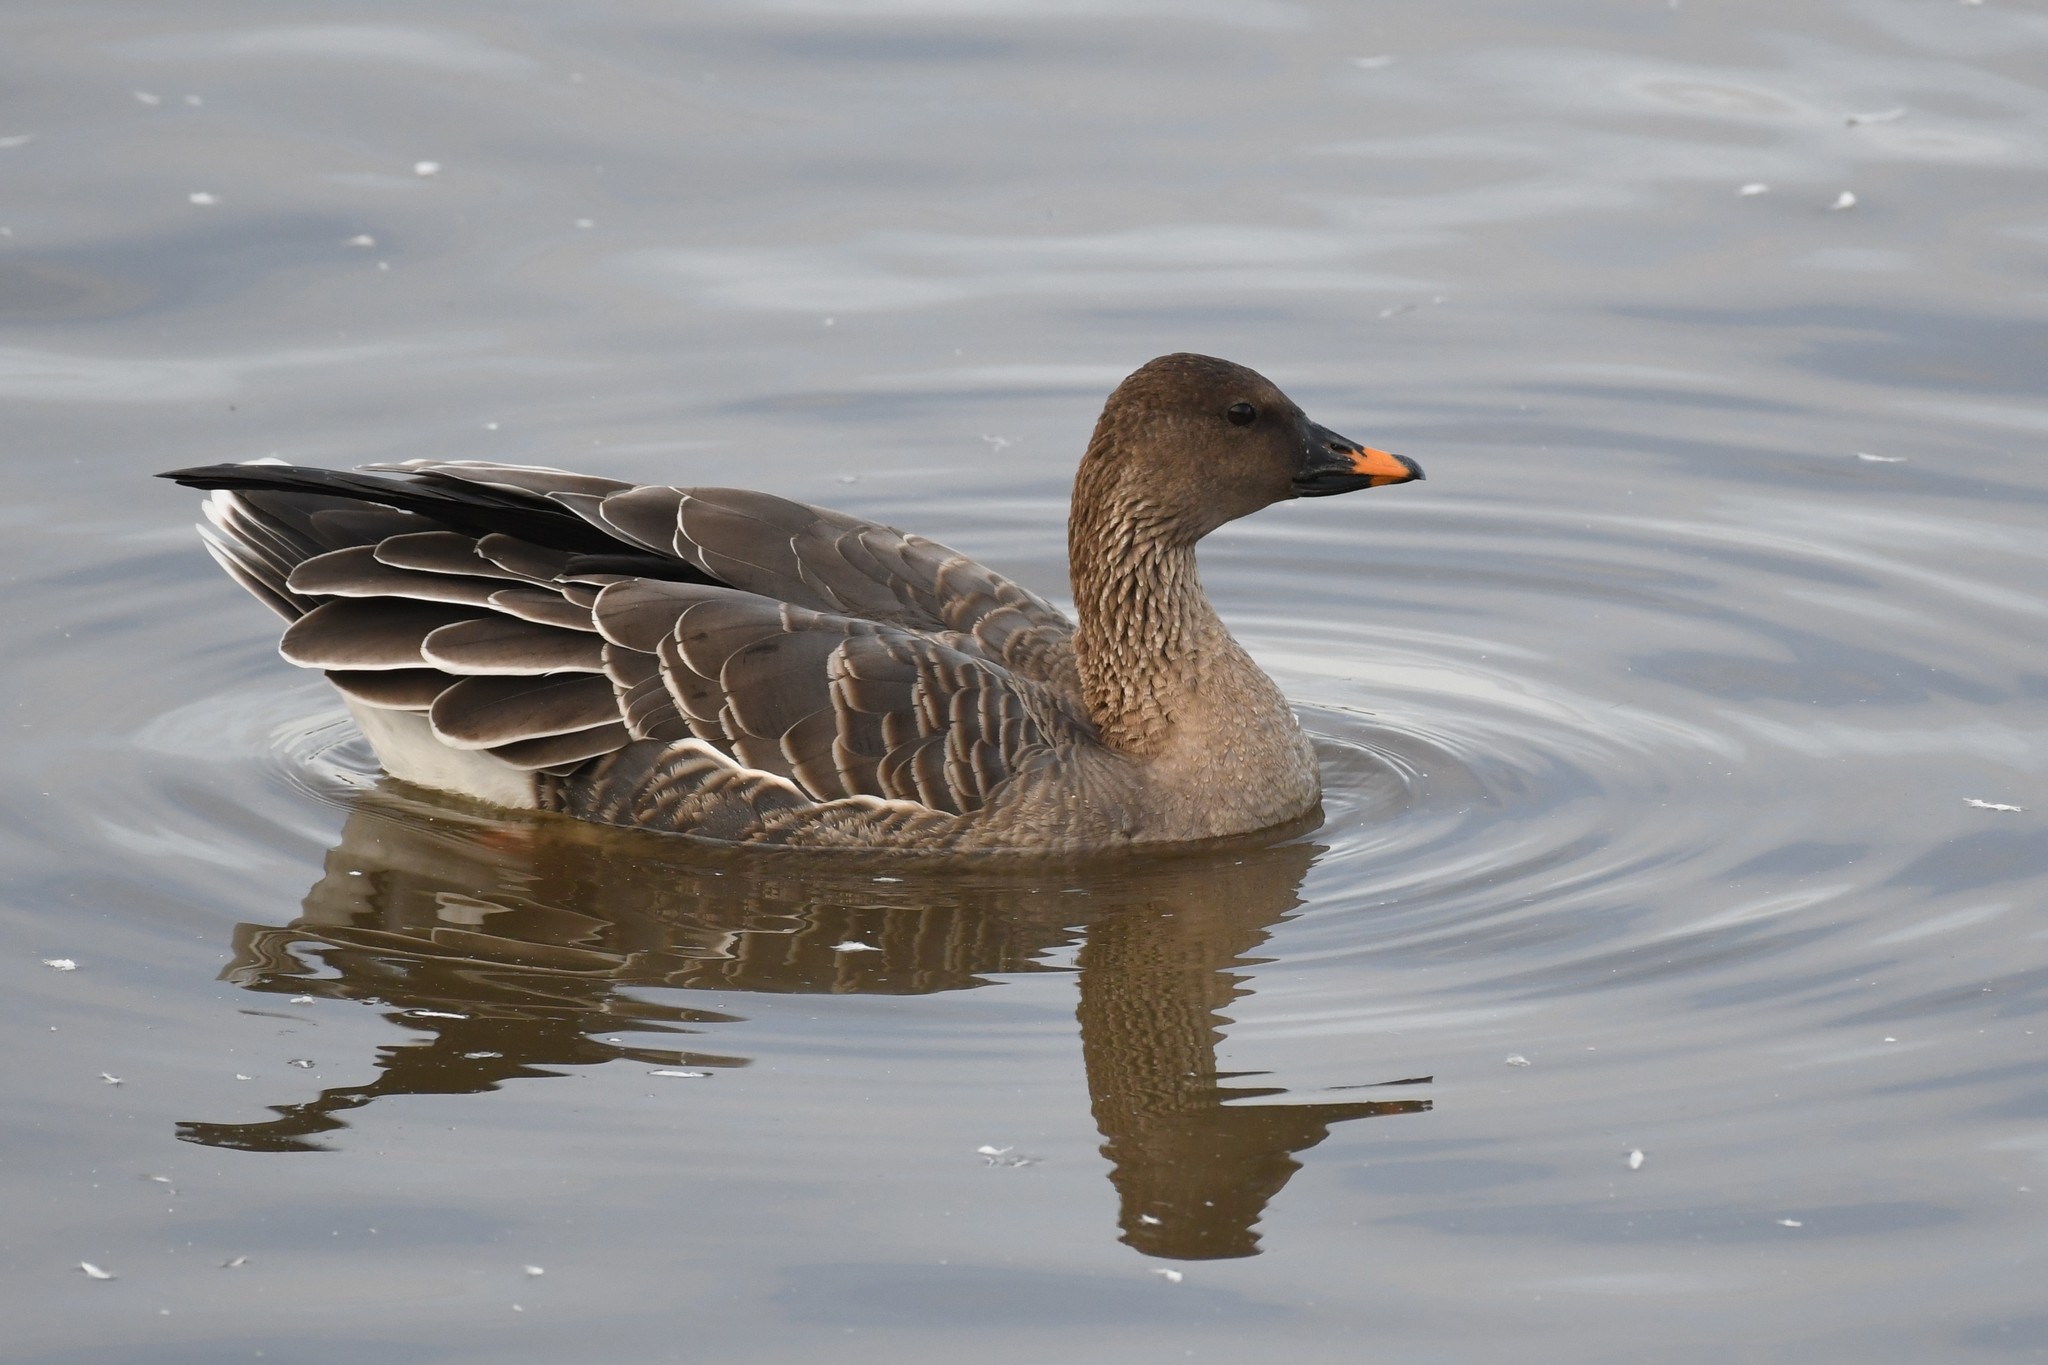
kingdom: Animalia
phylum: Chordata
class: Aves
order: Anseriformes
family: Anatidae
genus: Anser
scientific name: Anser serrirostris
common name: Tundra bean goose
